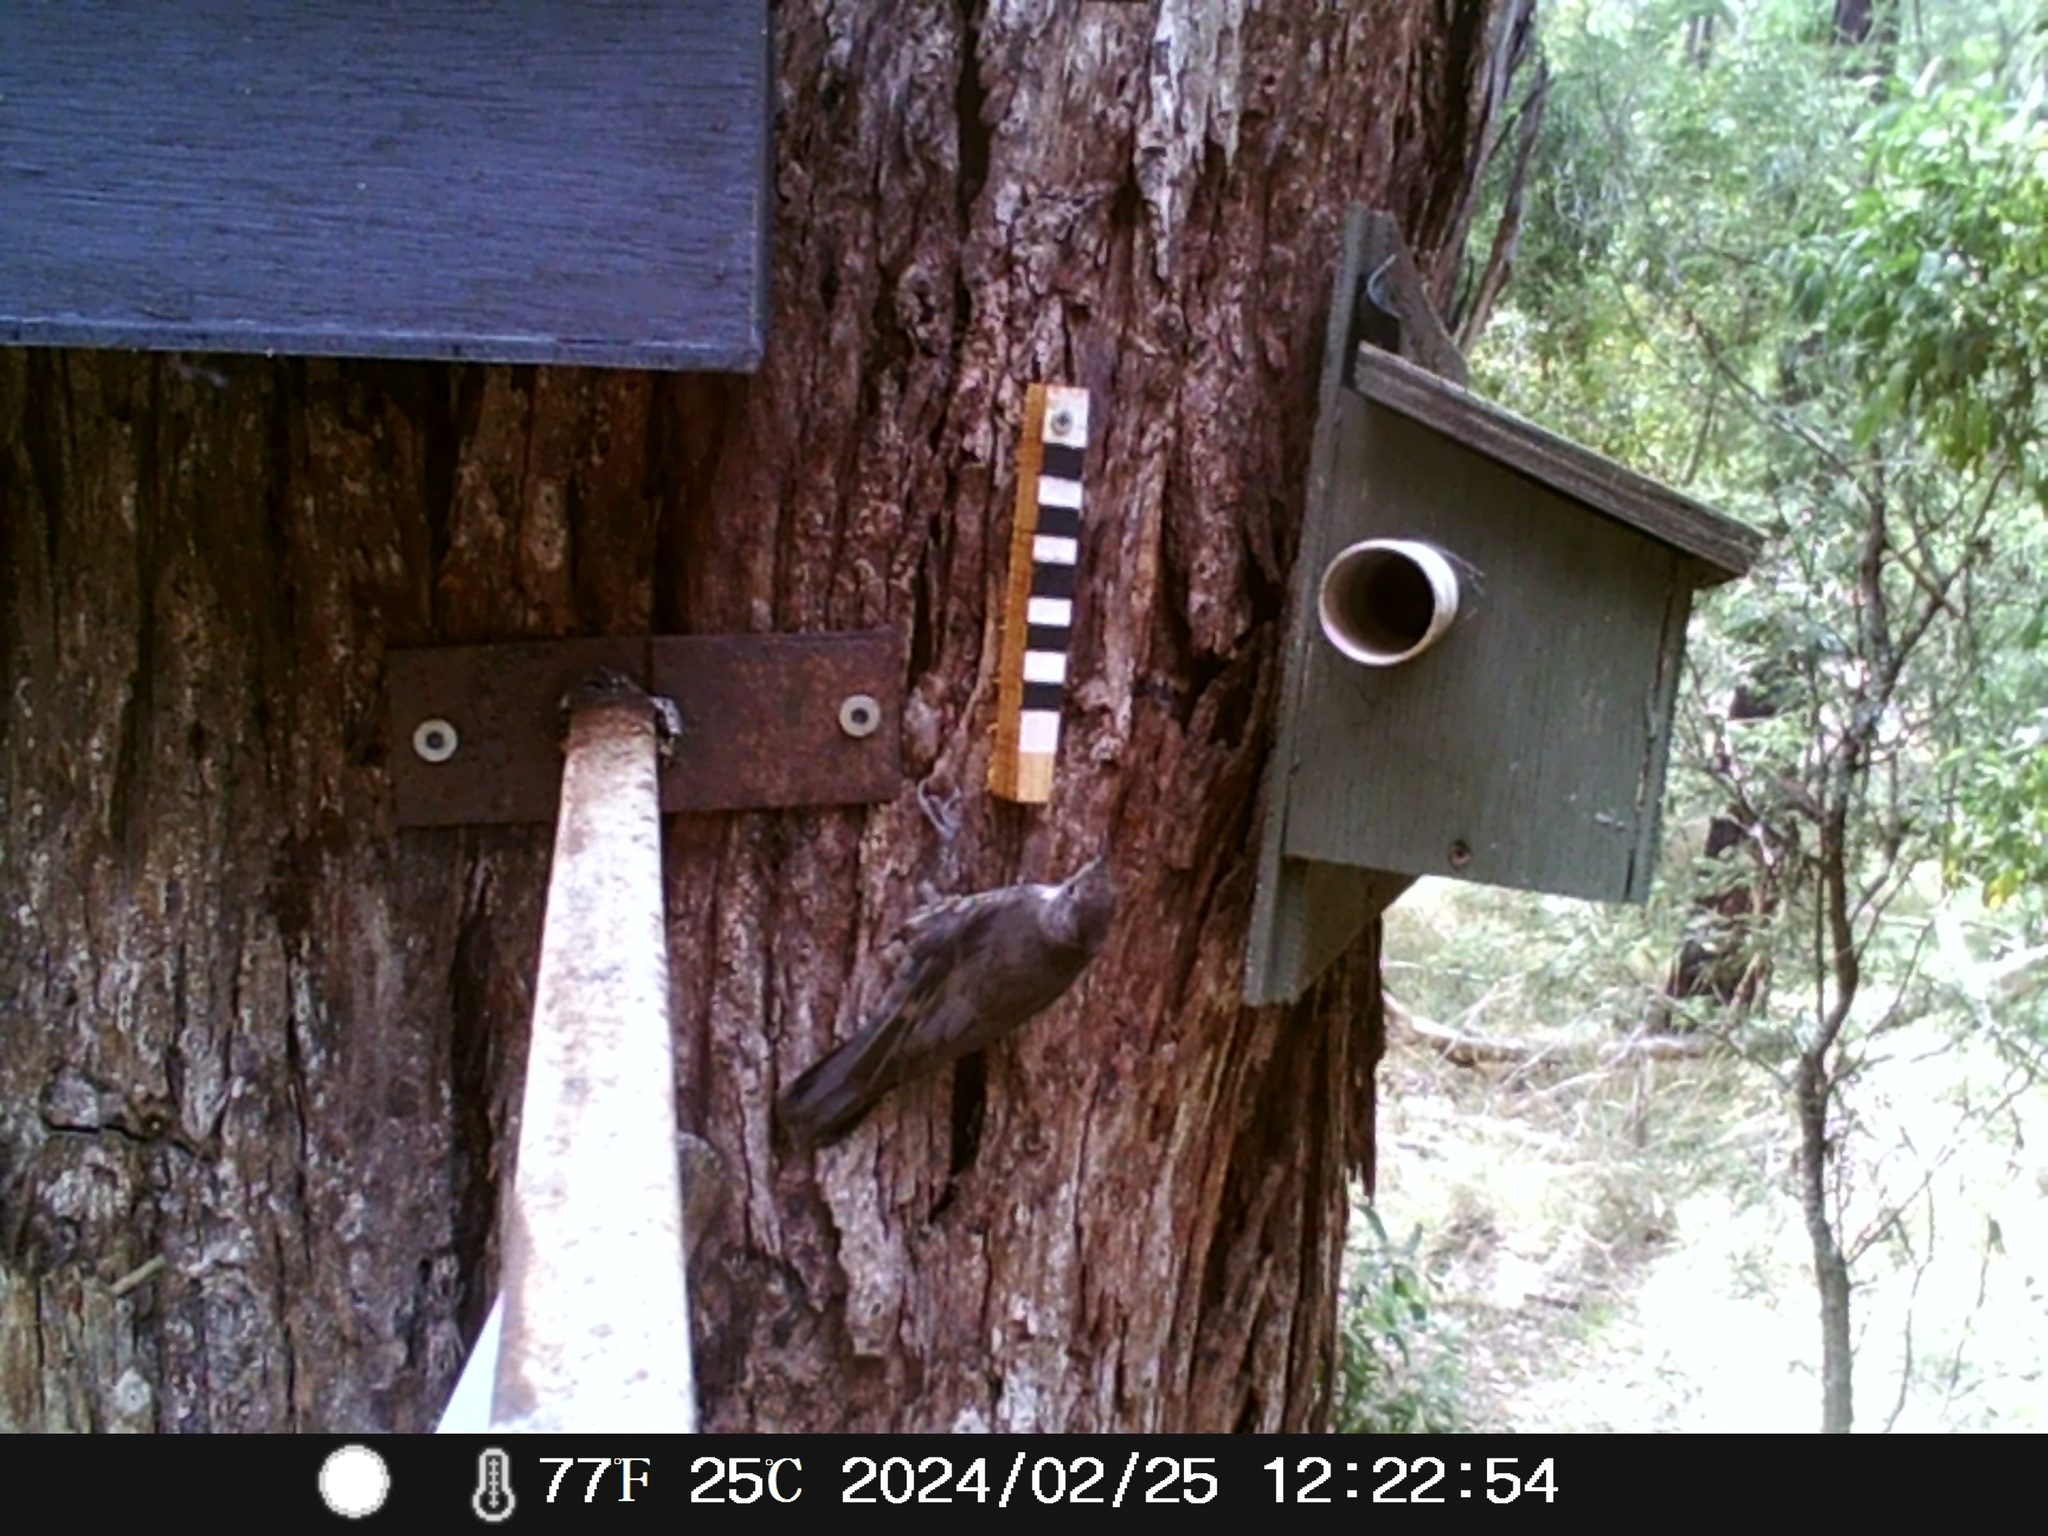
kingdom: Animalia
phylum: Chordata
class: Aves
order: Passeriformes
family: Climacteridae
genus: Cormobates
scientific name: Cormobates leucophaea
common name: White-throated treecreeper
